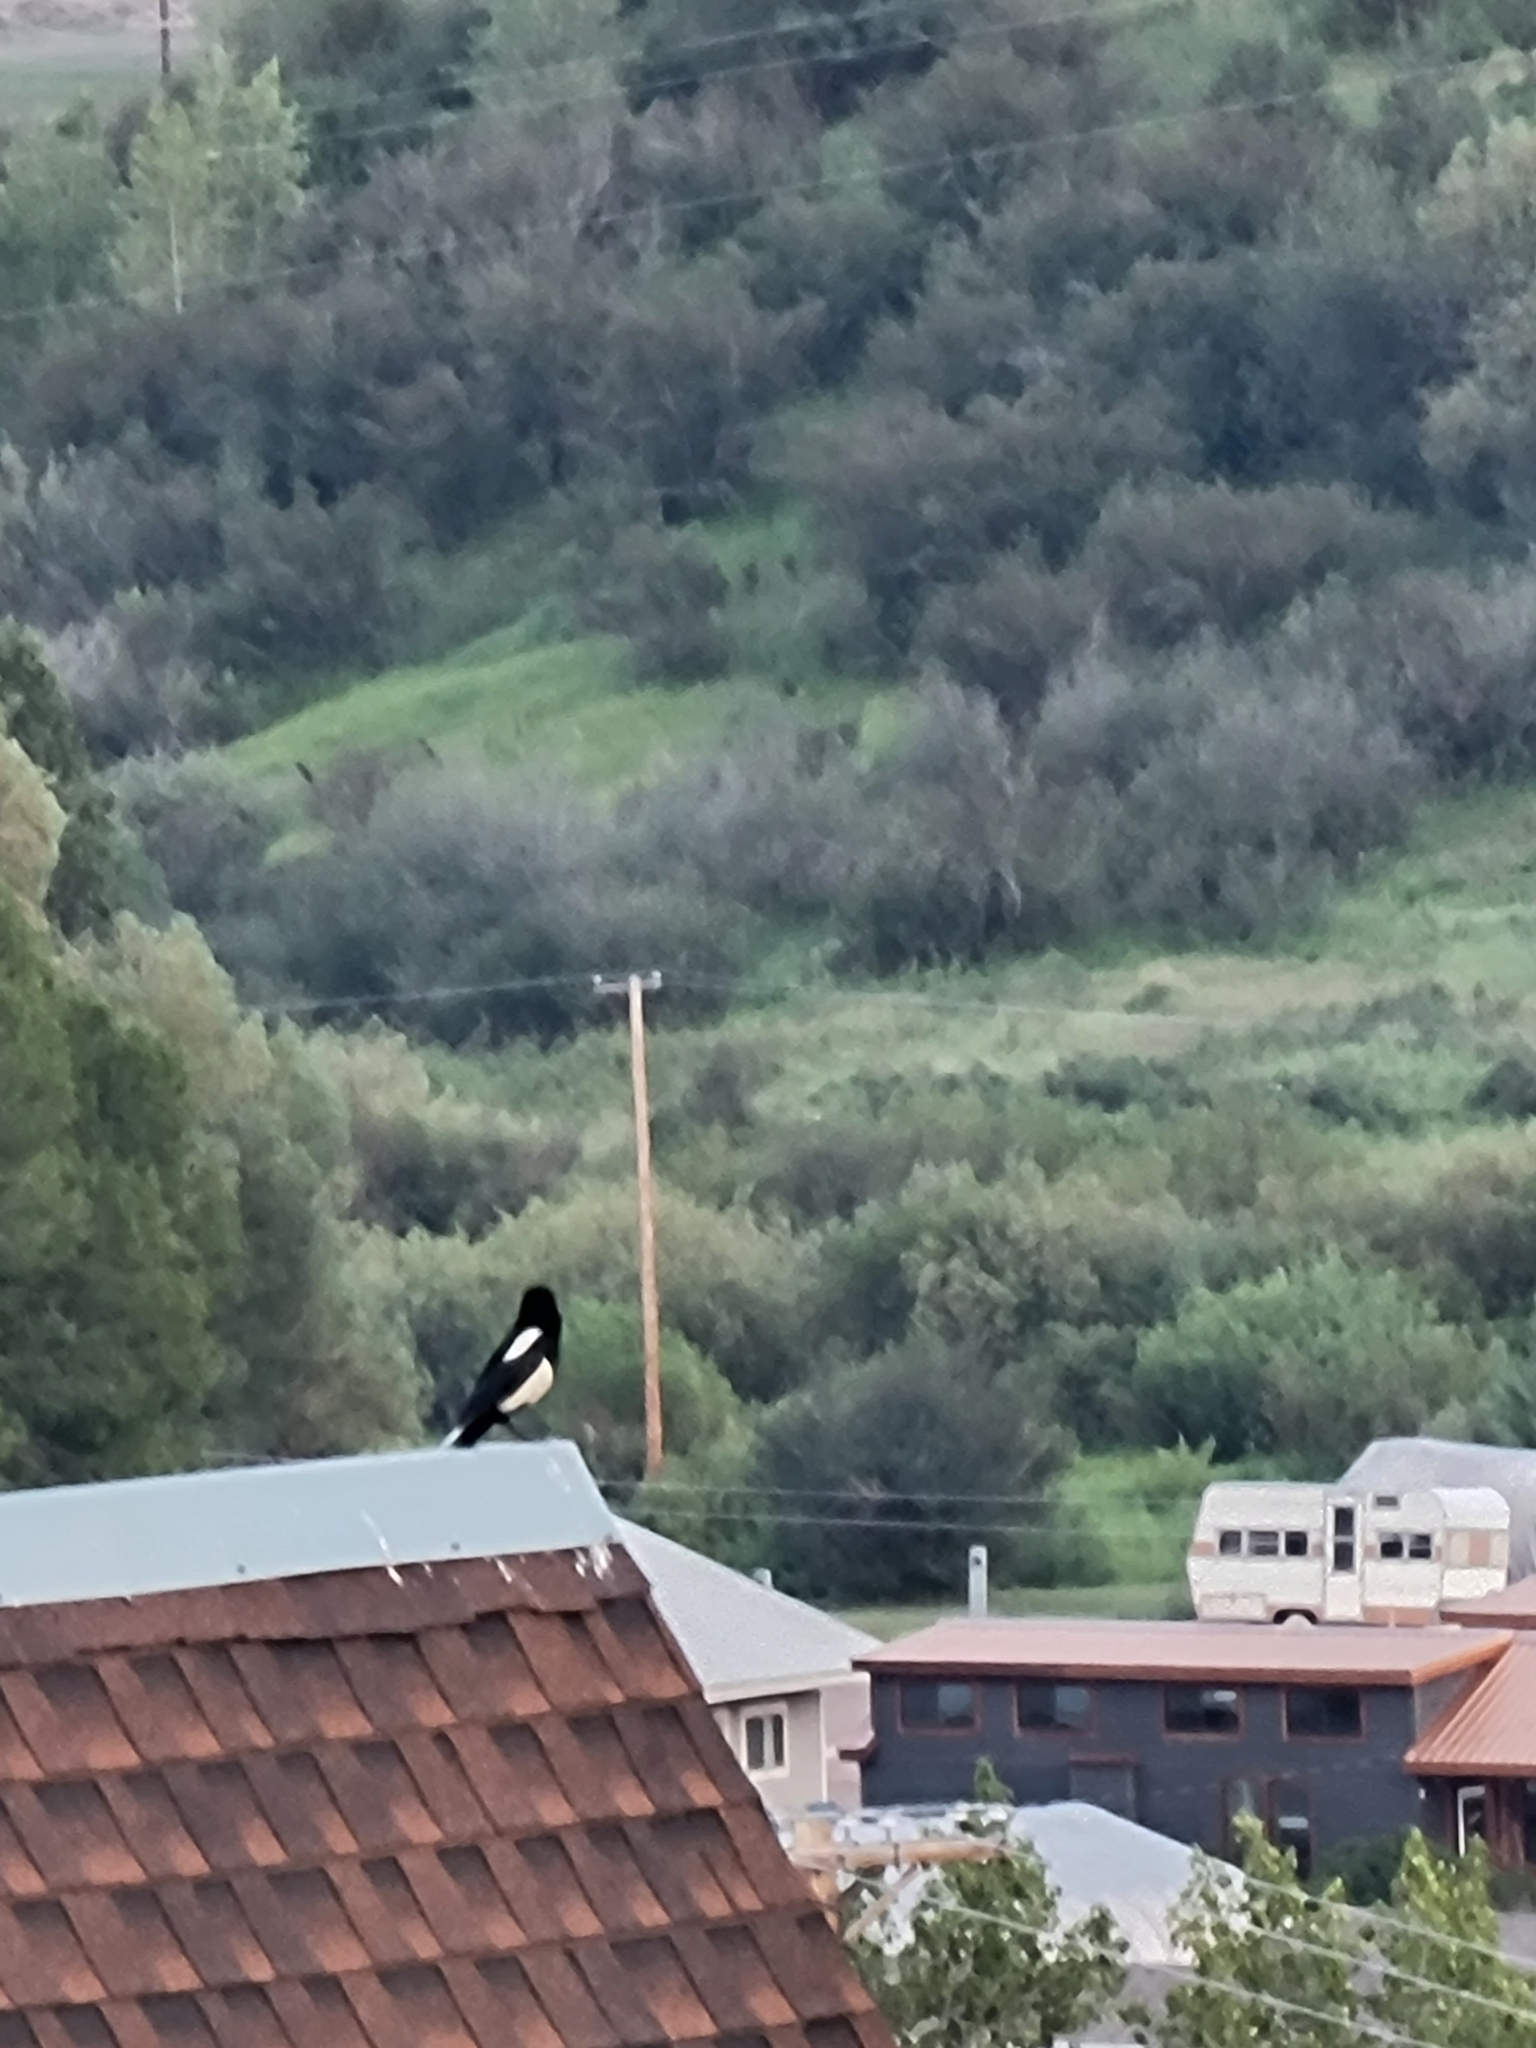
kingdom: Animalia
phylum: Chordata
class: Aves
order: Passeriformes
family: Corvidae
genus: Pica
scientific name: Pica hudsonia
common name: Black-billed magpie
